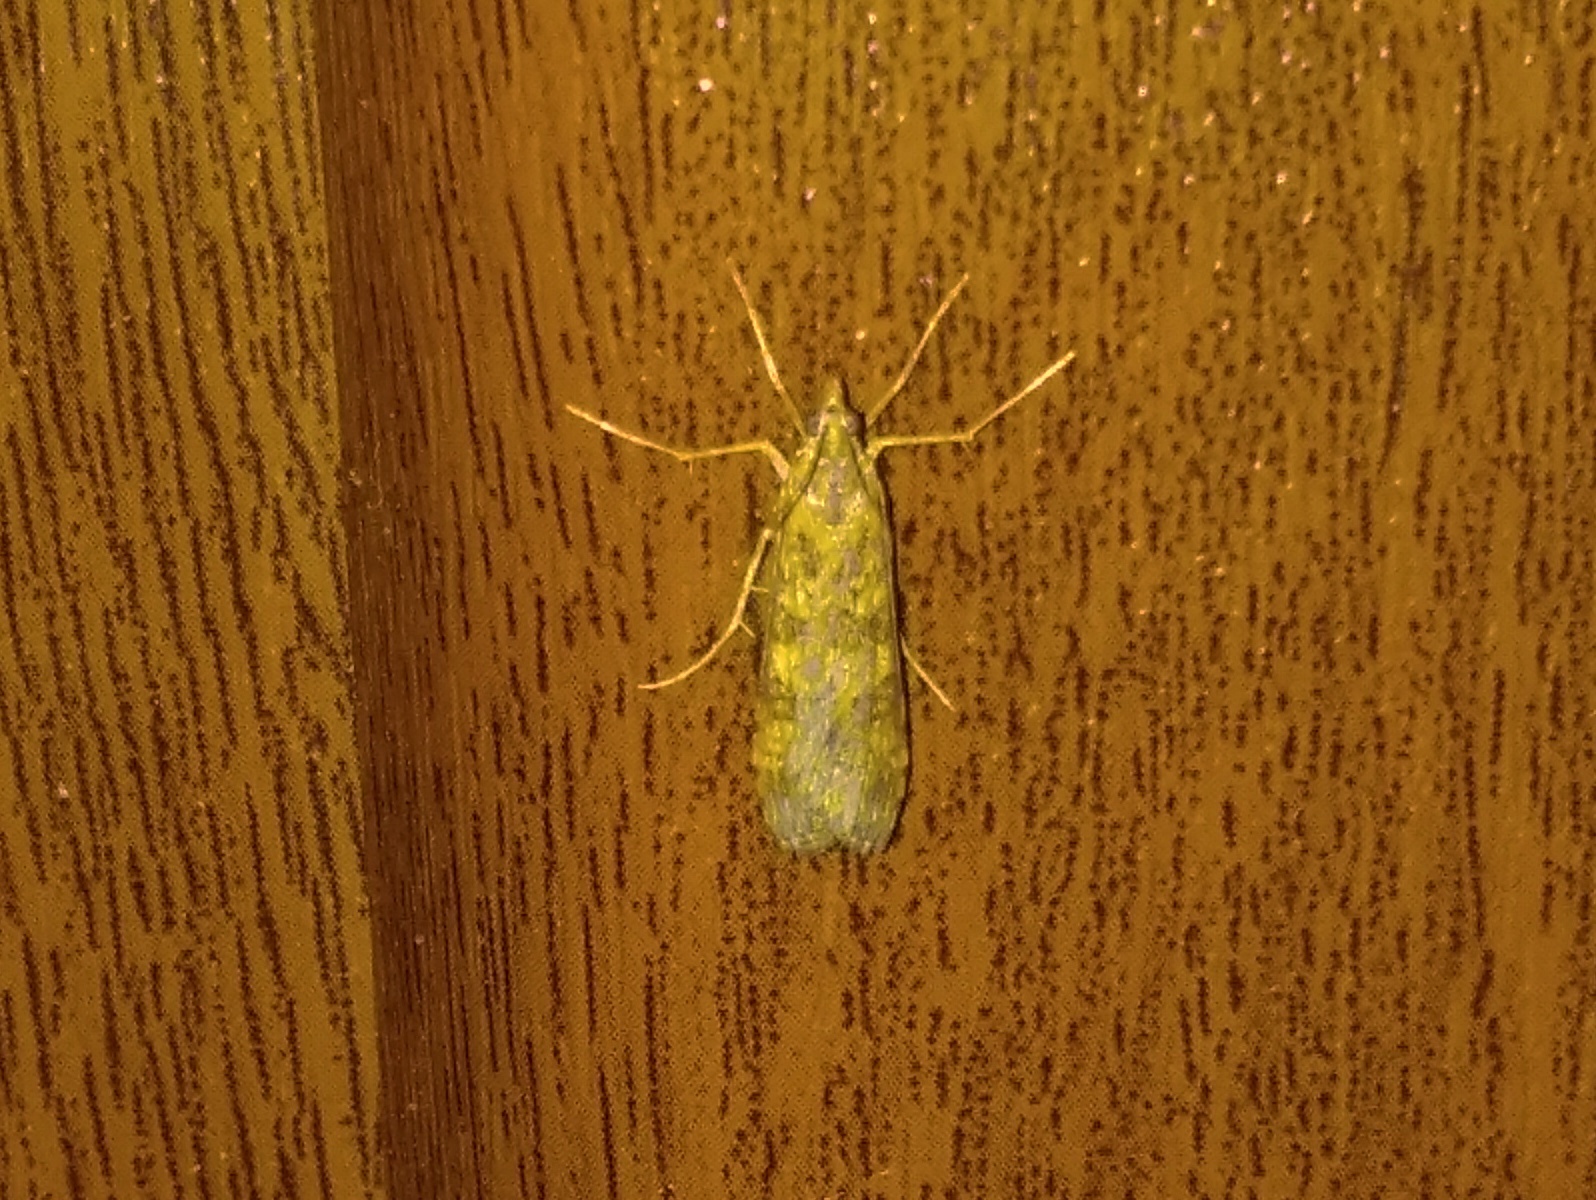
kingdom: Animalia
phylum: Arthropoda
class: Insecta
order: Lepidoptera
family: Crambidae
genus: Nomophila
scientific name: Nomophila noctuella
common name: Rush veneer
